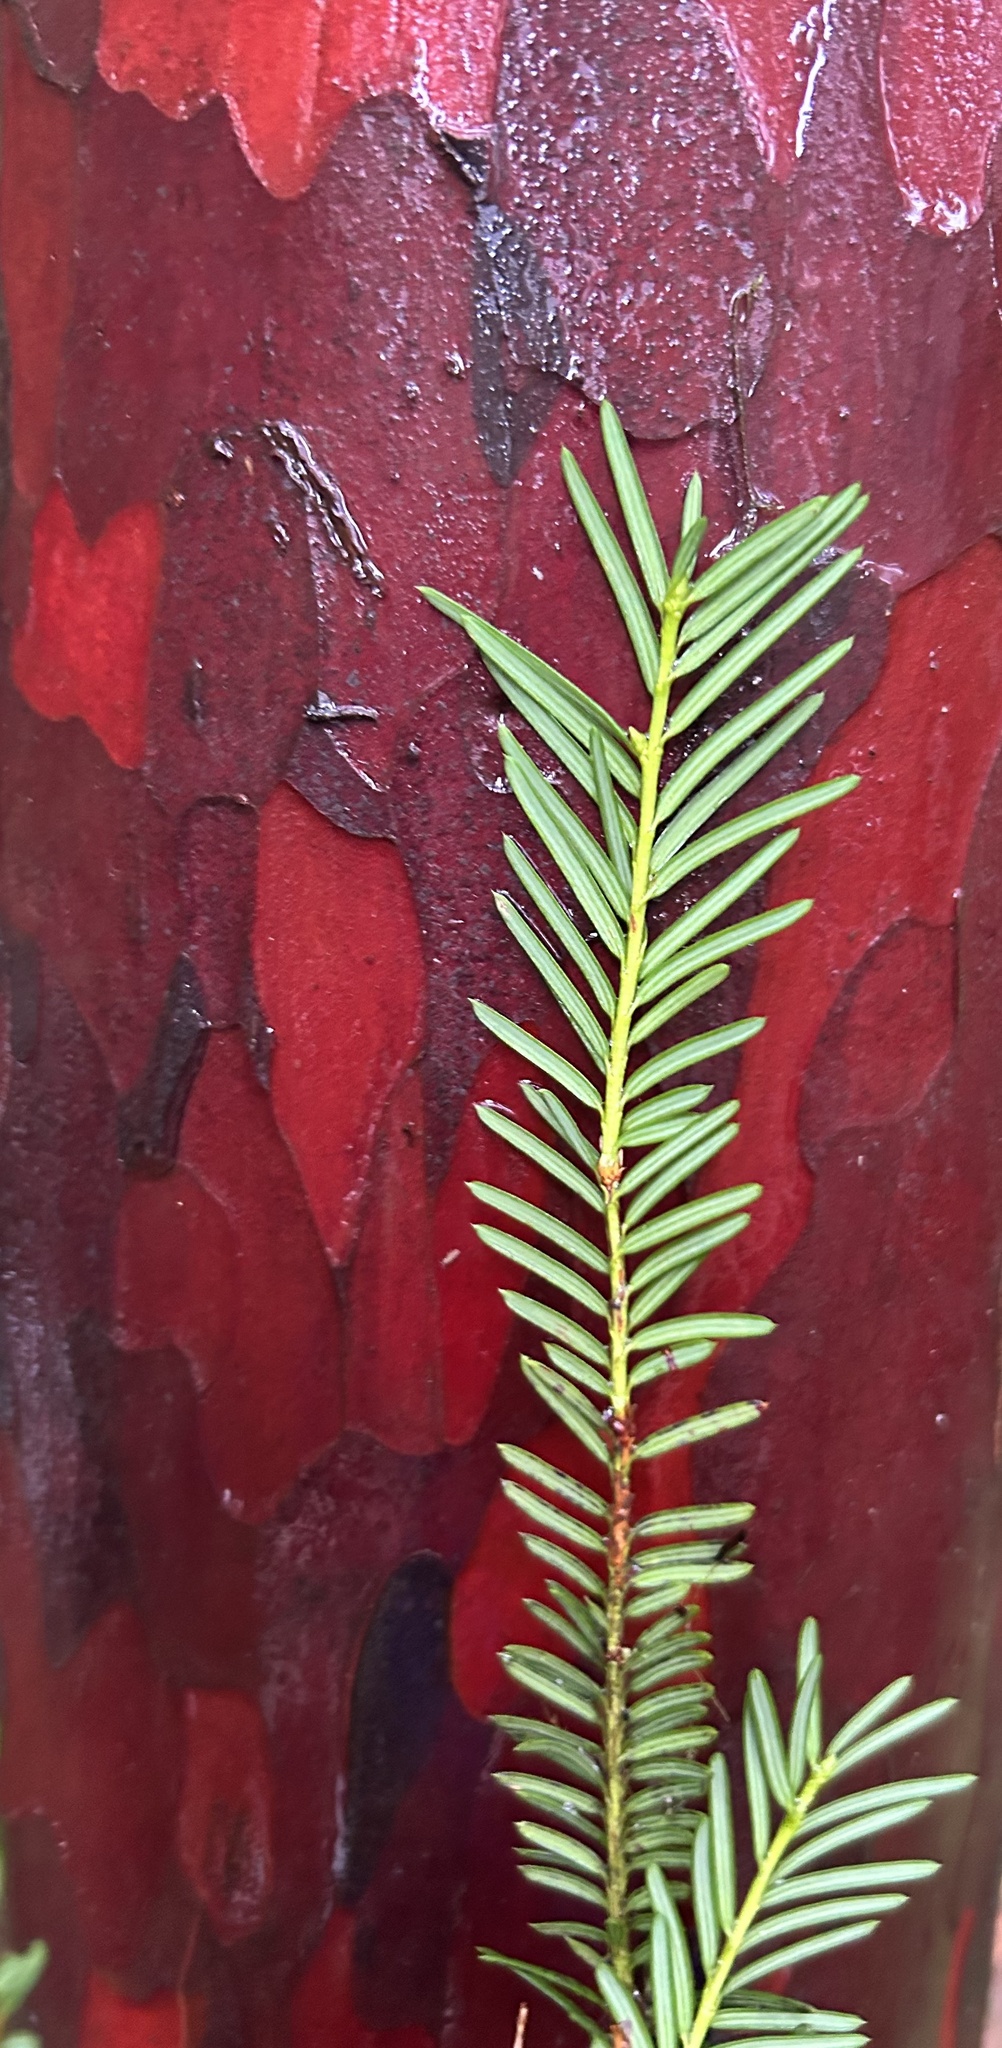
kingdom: Plantae
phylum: Tracheophyta
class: Pinopsida
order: Pinales
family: Taxaceae
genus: Taxus
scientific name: Taxus brevifolia
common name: Pacific yew
